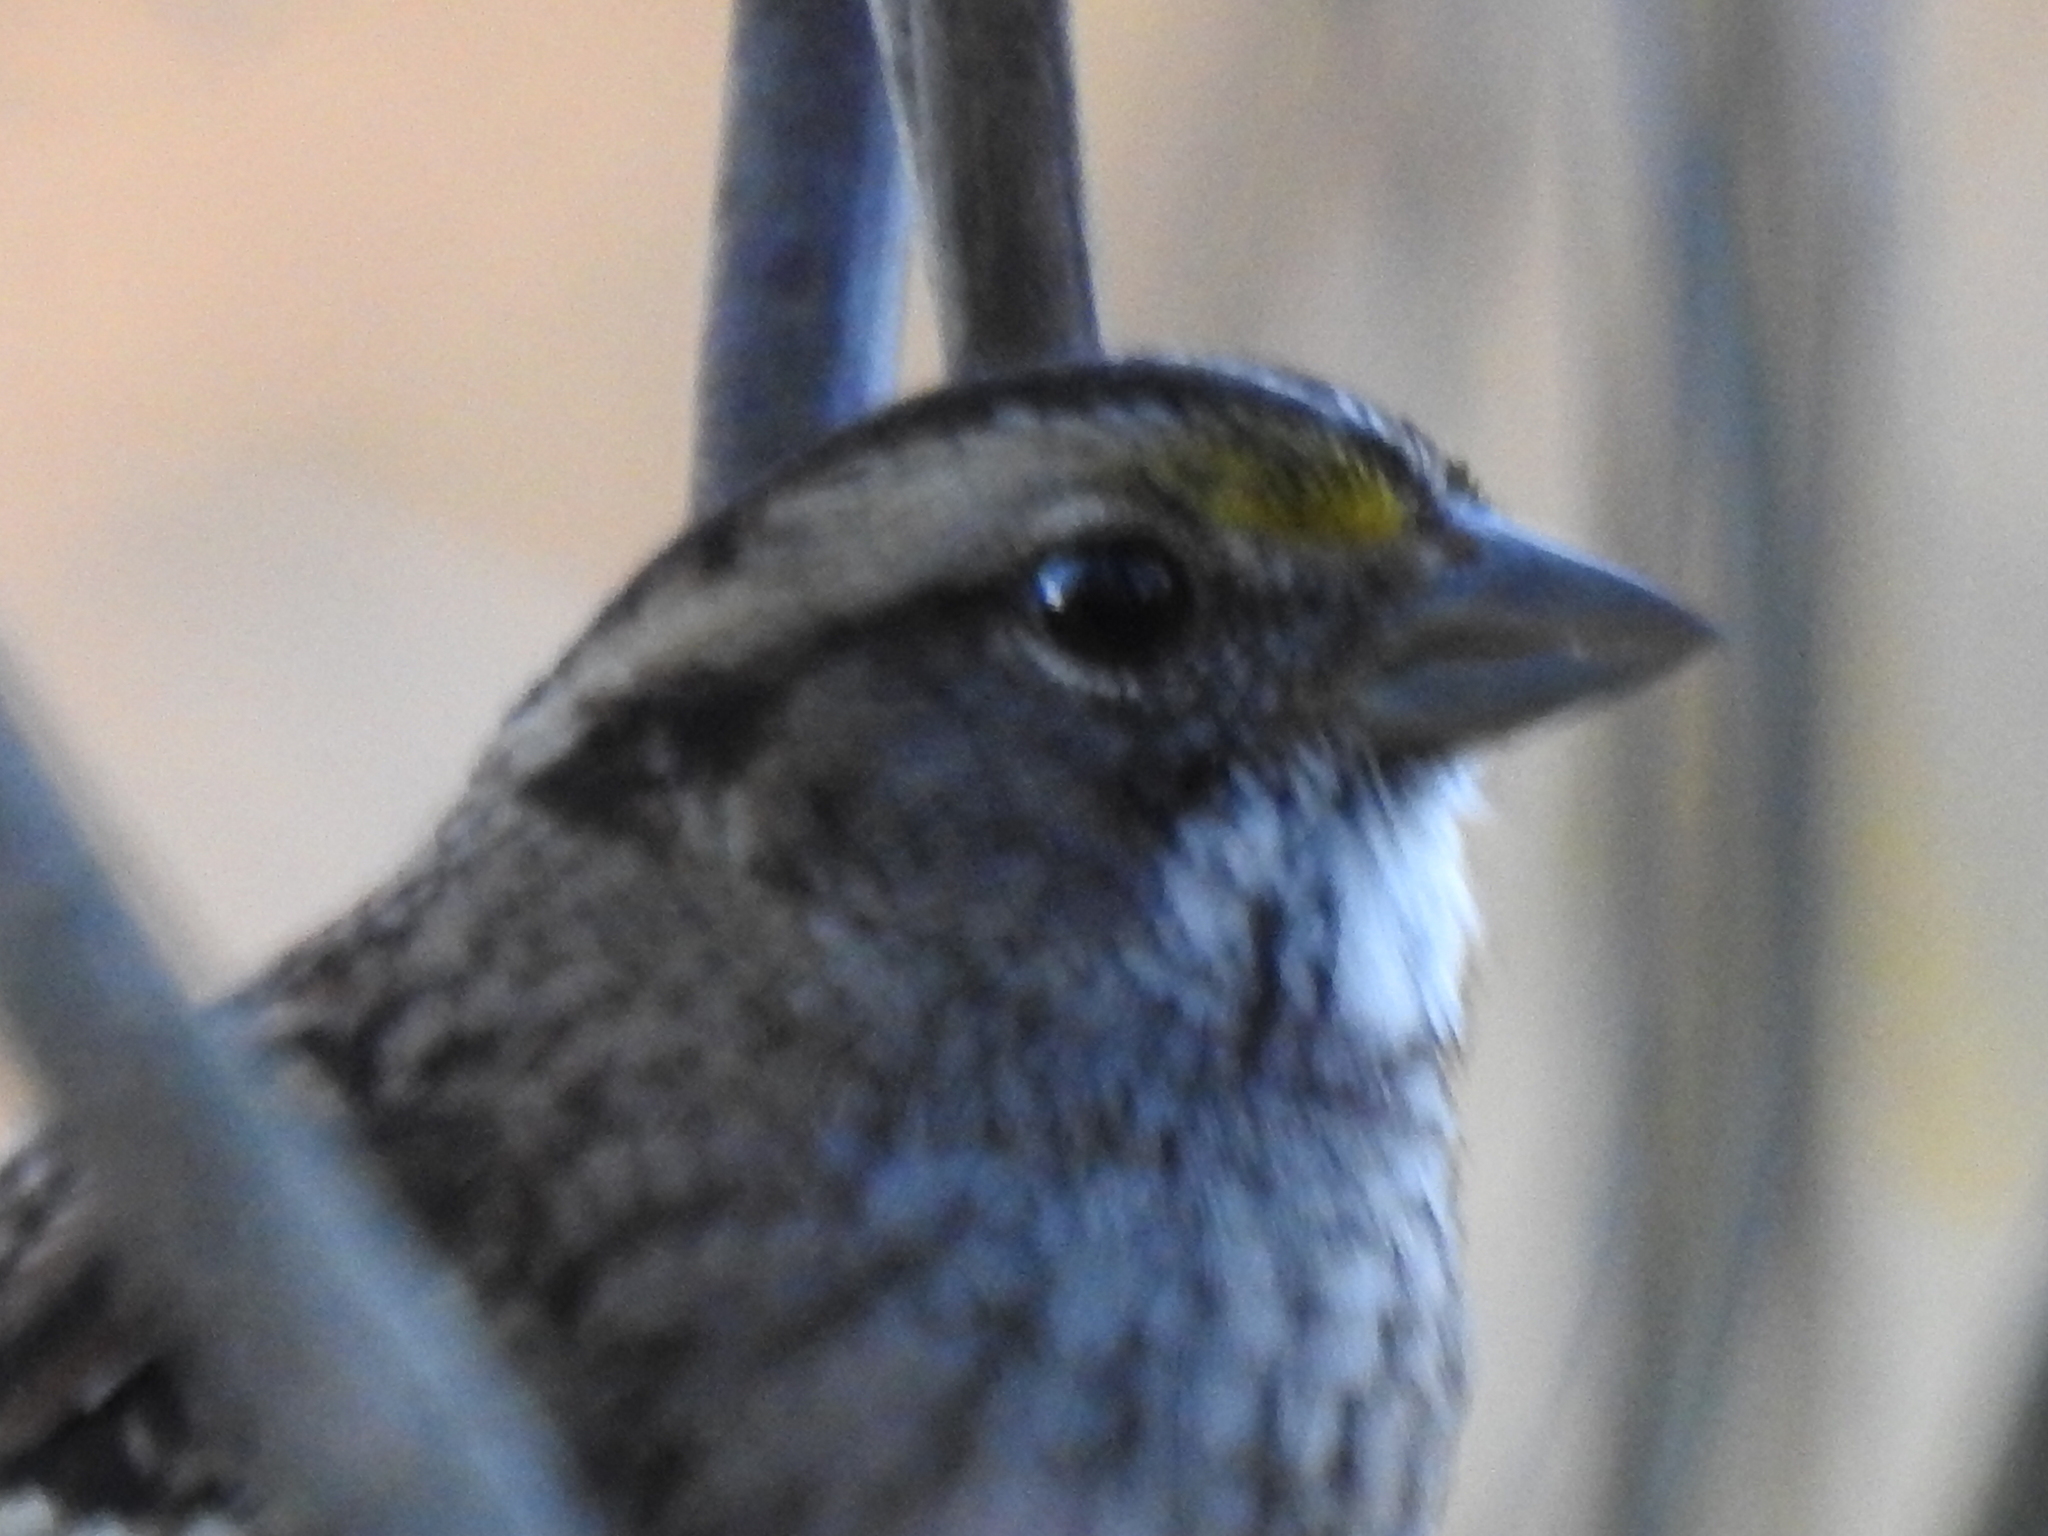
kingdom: Animalia
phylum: Chordata
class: Aves
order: Passeriformes
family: Passerellidae
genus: Zonotrichia
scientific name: Zonotrichia albicollis
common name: White-throated sparrow
